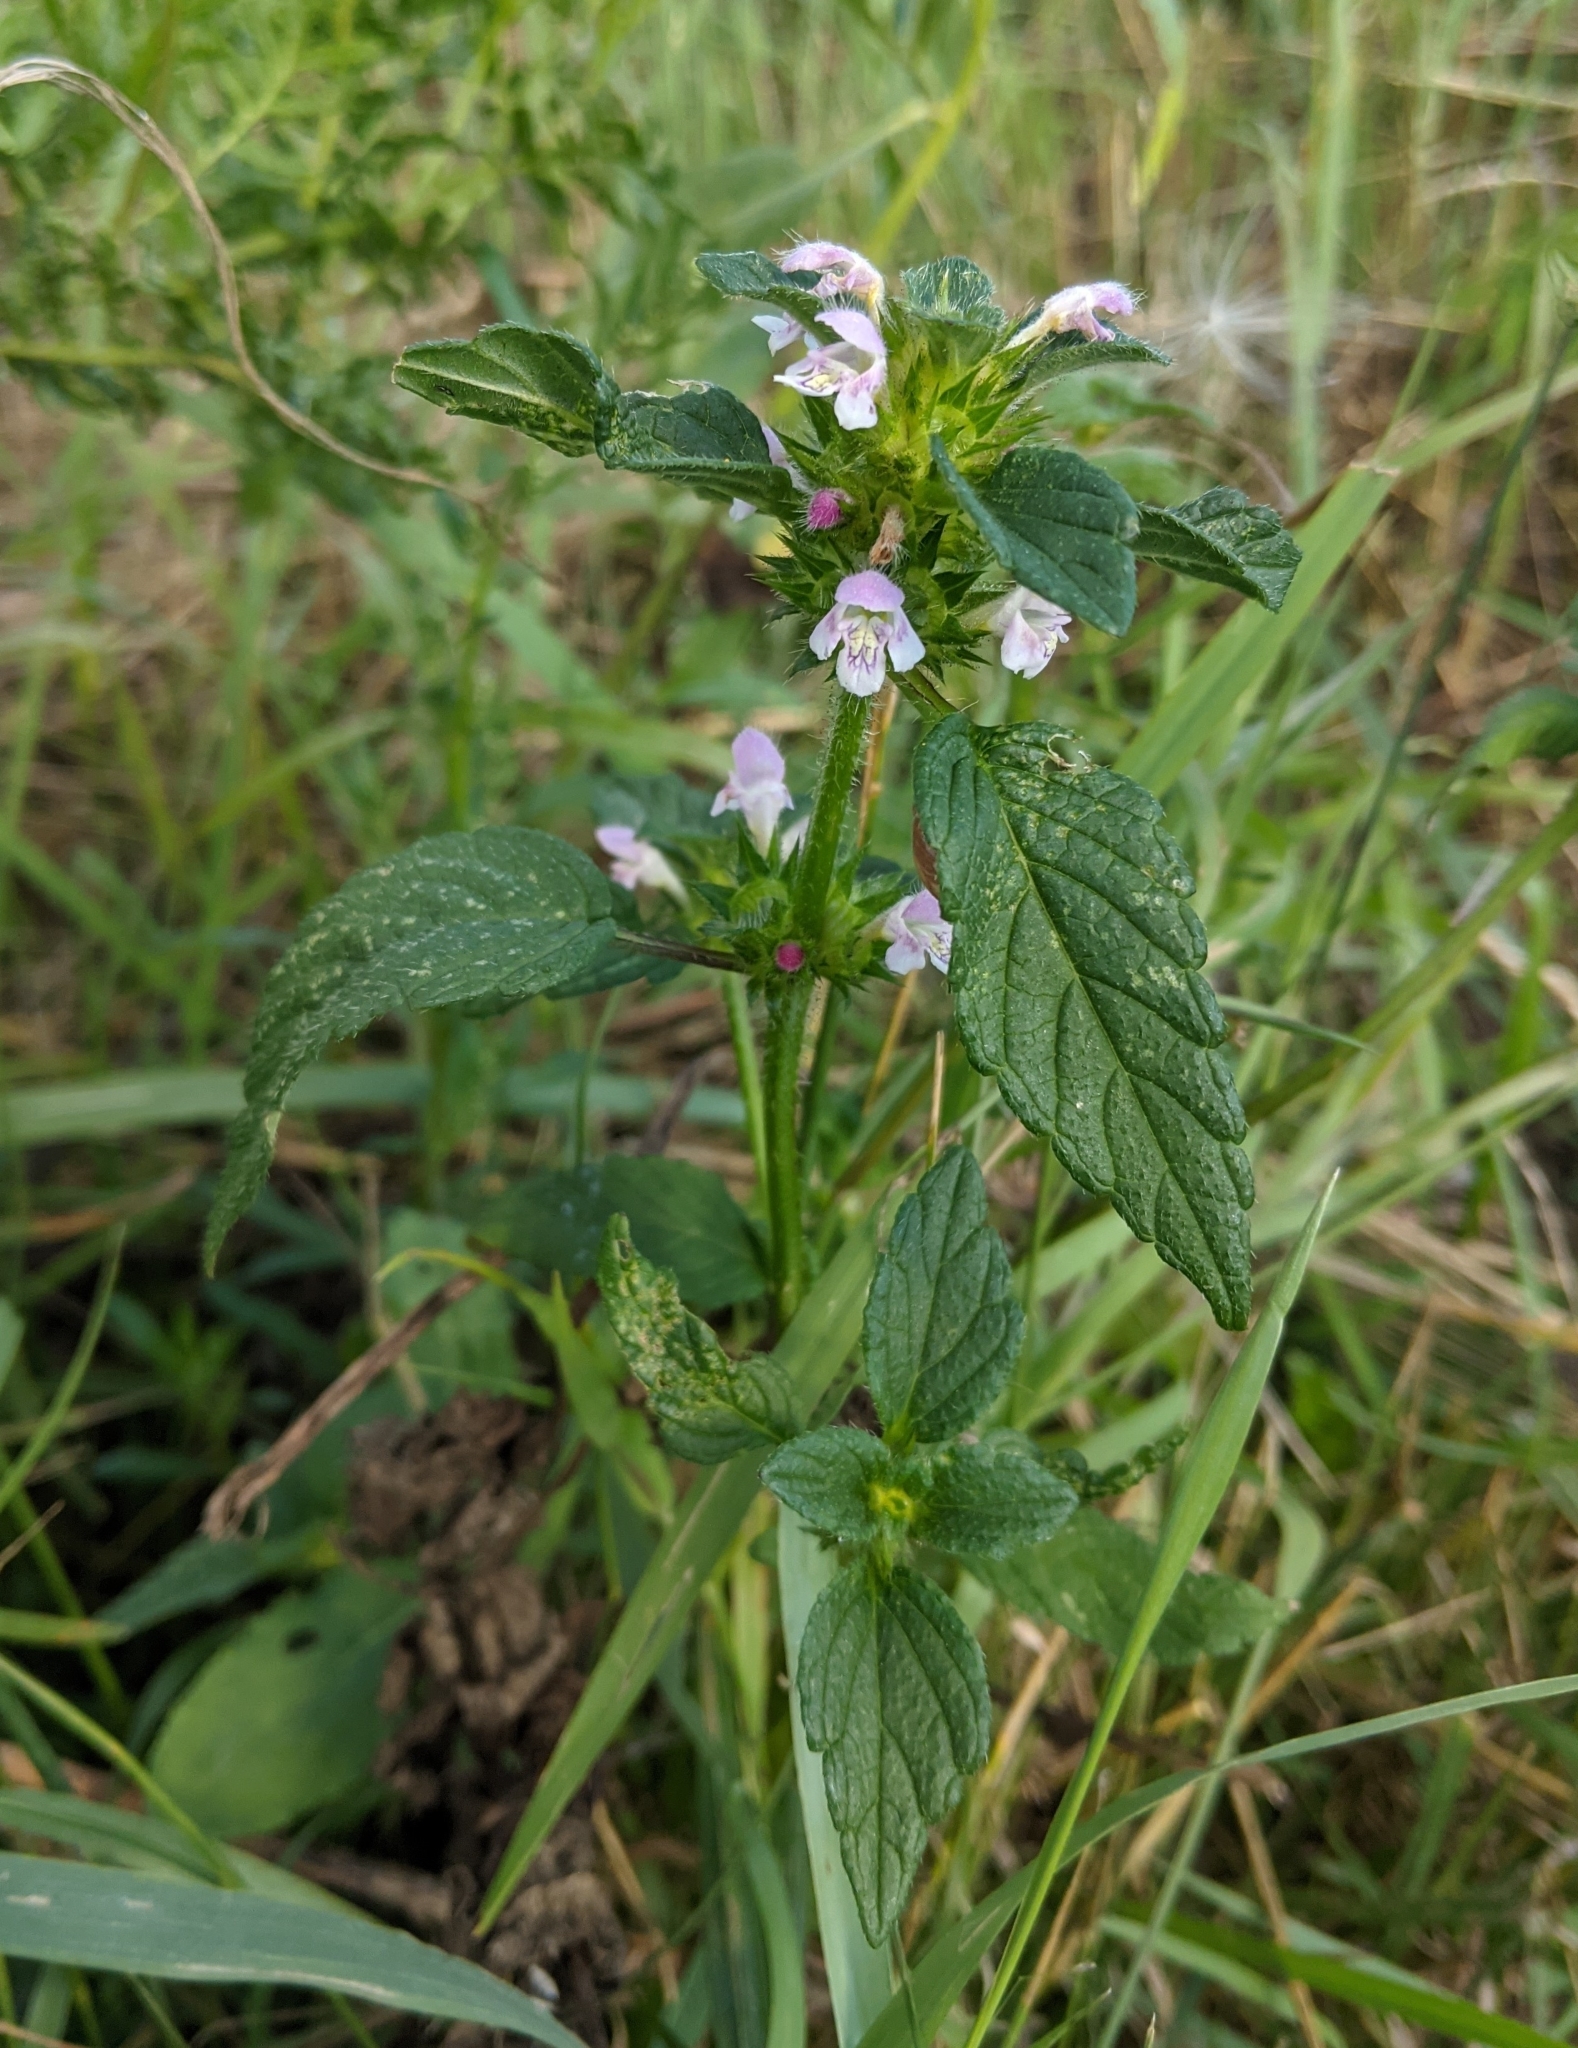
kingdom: Plantae
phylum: Tracheophyta
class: Magnoliopsida
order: Lamiales
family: Lamiaceae
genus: Galeopsis
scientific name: Galeopsis tetrahit
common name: Common hemp-nettle
